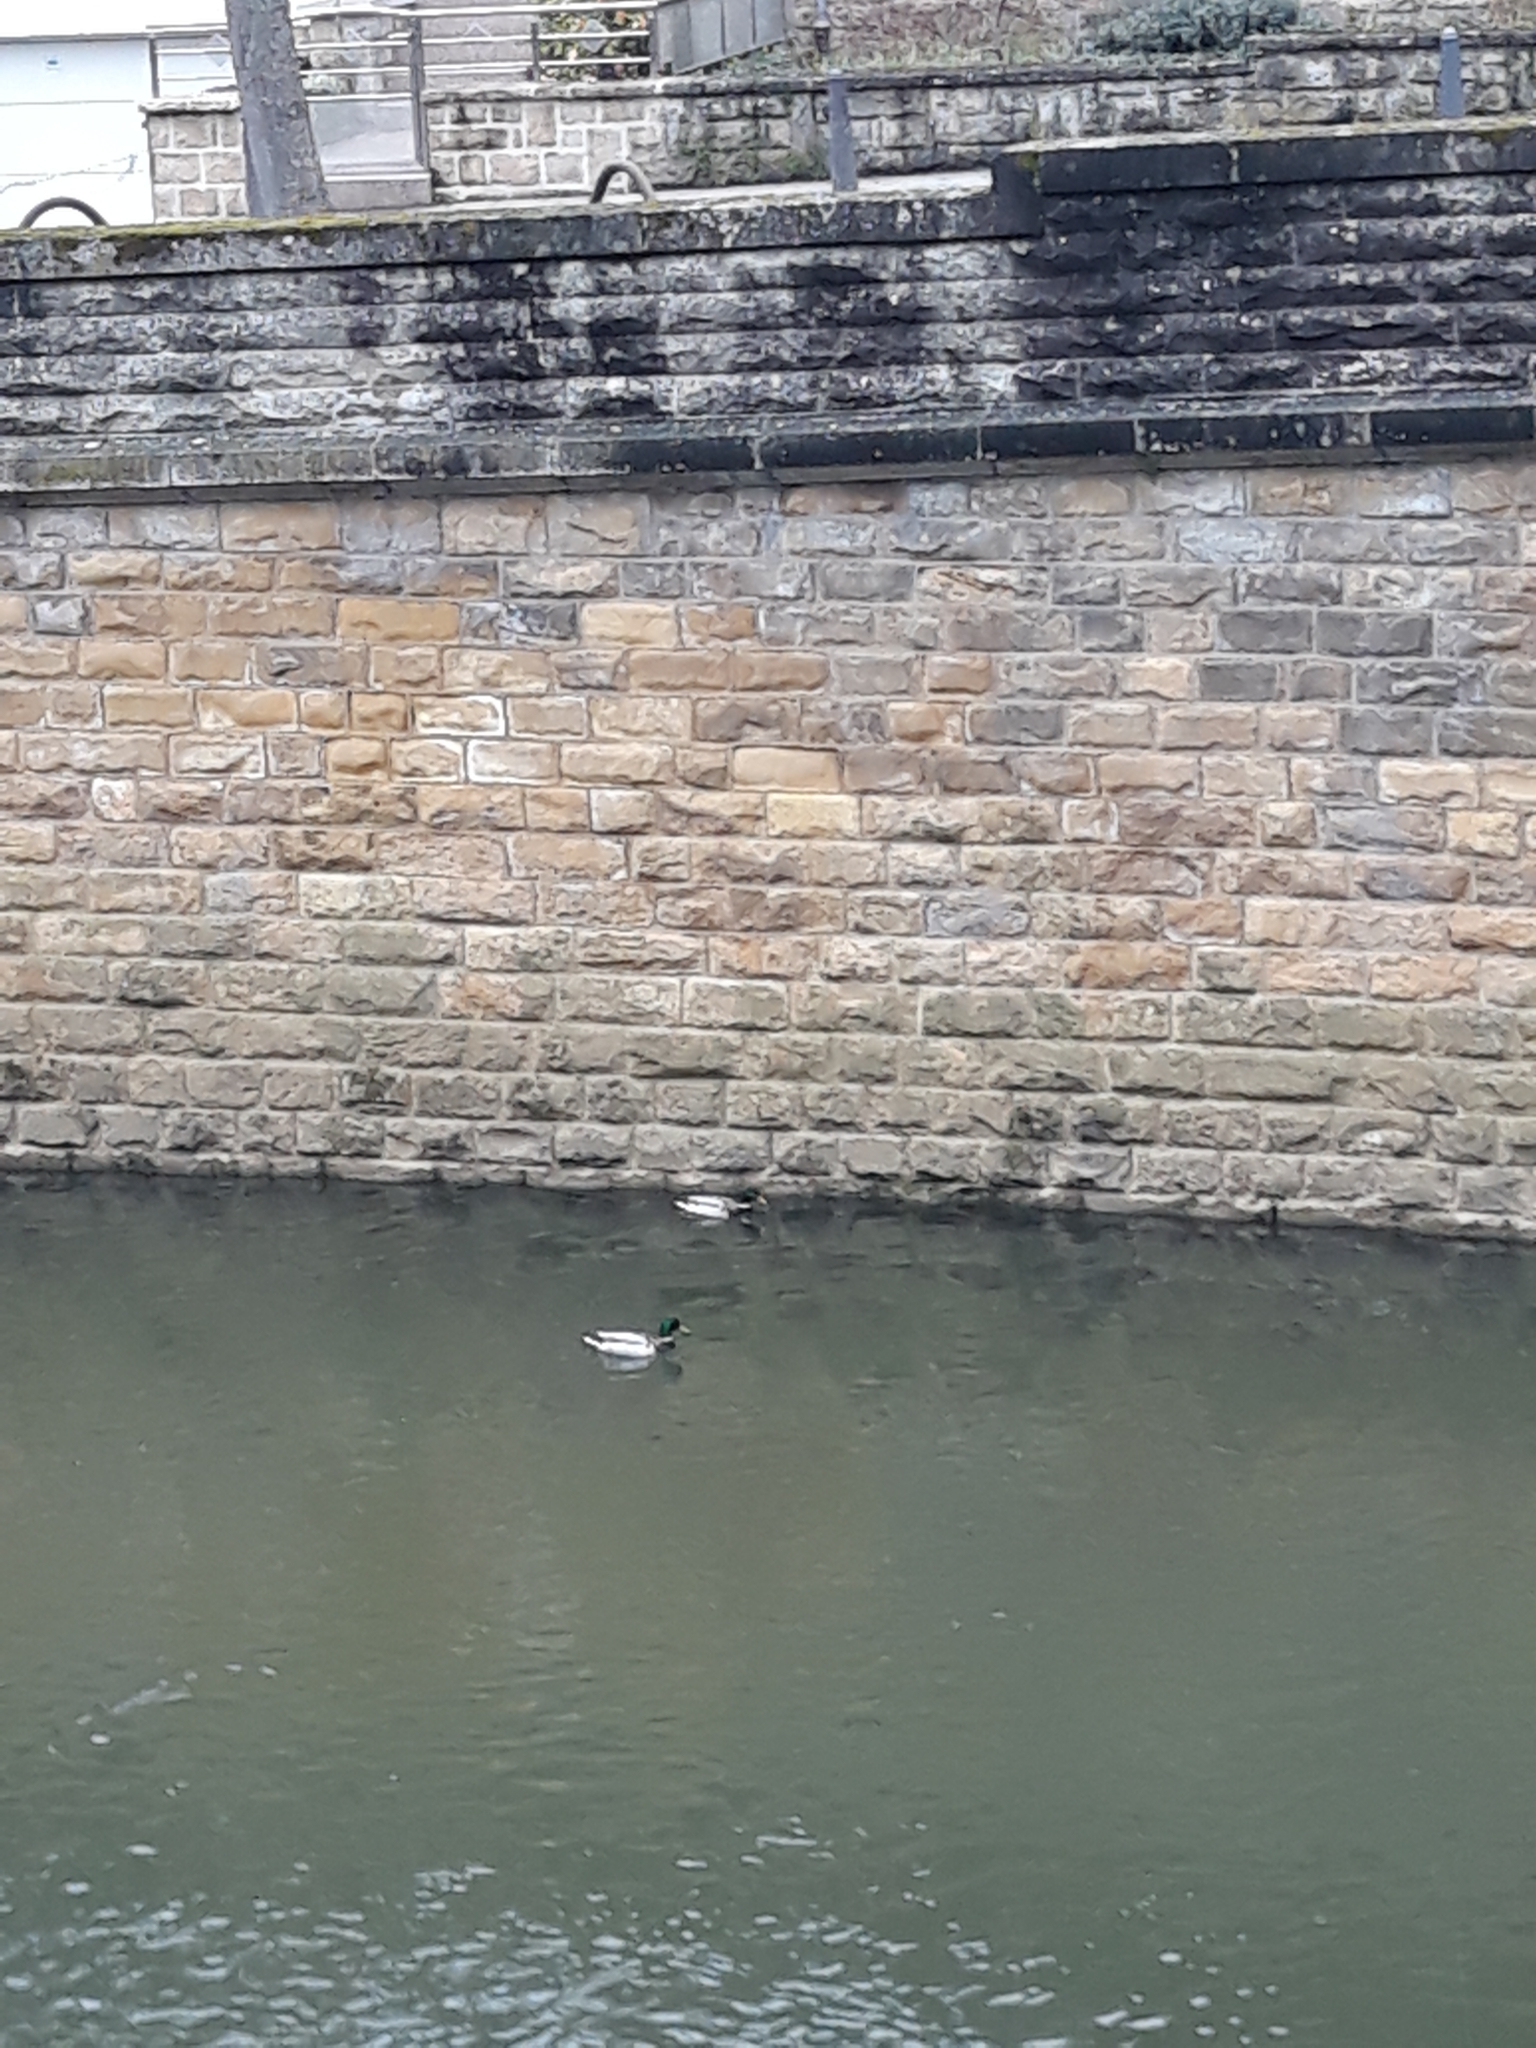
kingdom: Animalia
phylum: Chordata
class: Aves
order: Anseriformes
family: Anatidae
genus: Anas
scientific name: Anas platyrhynchos
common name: Mallard
